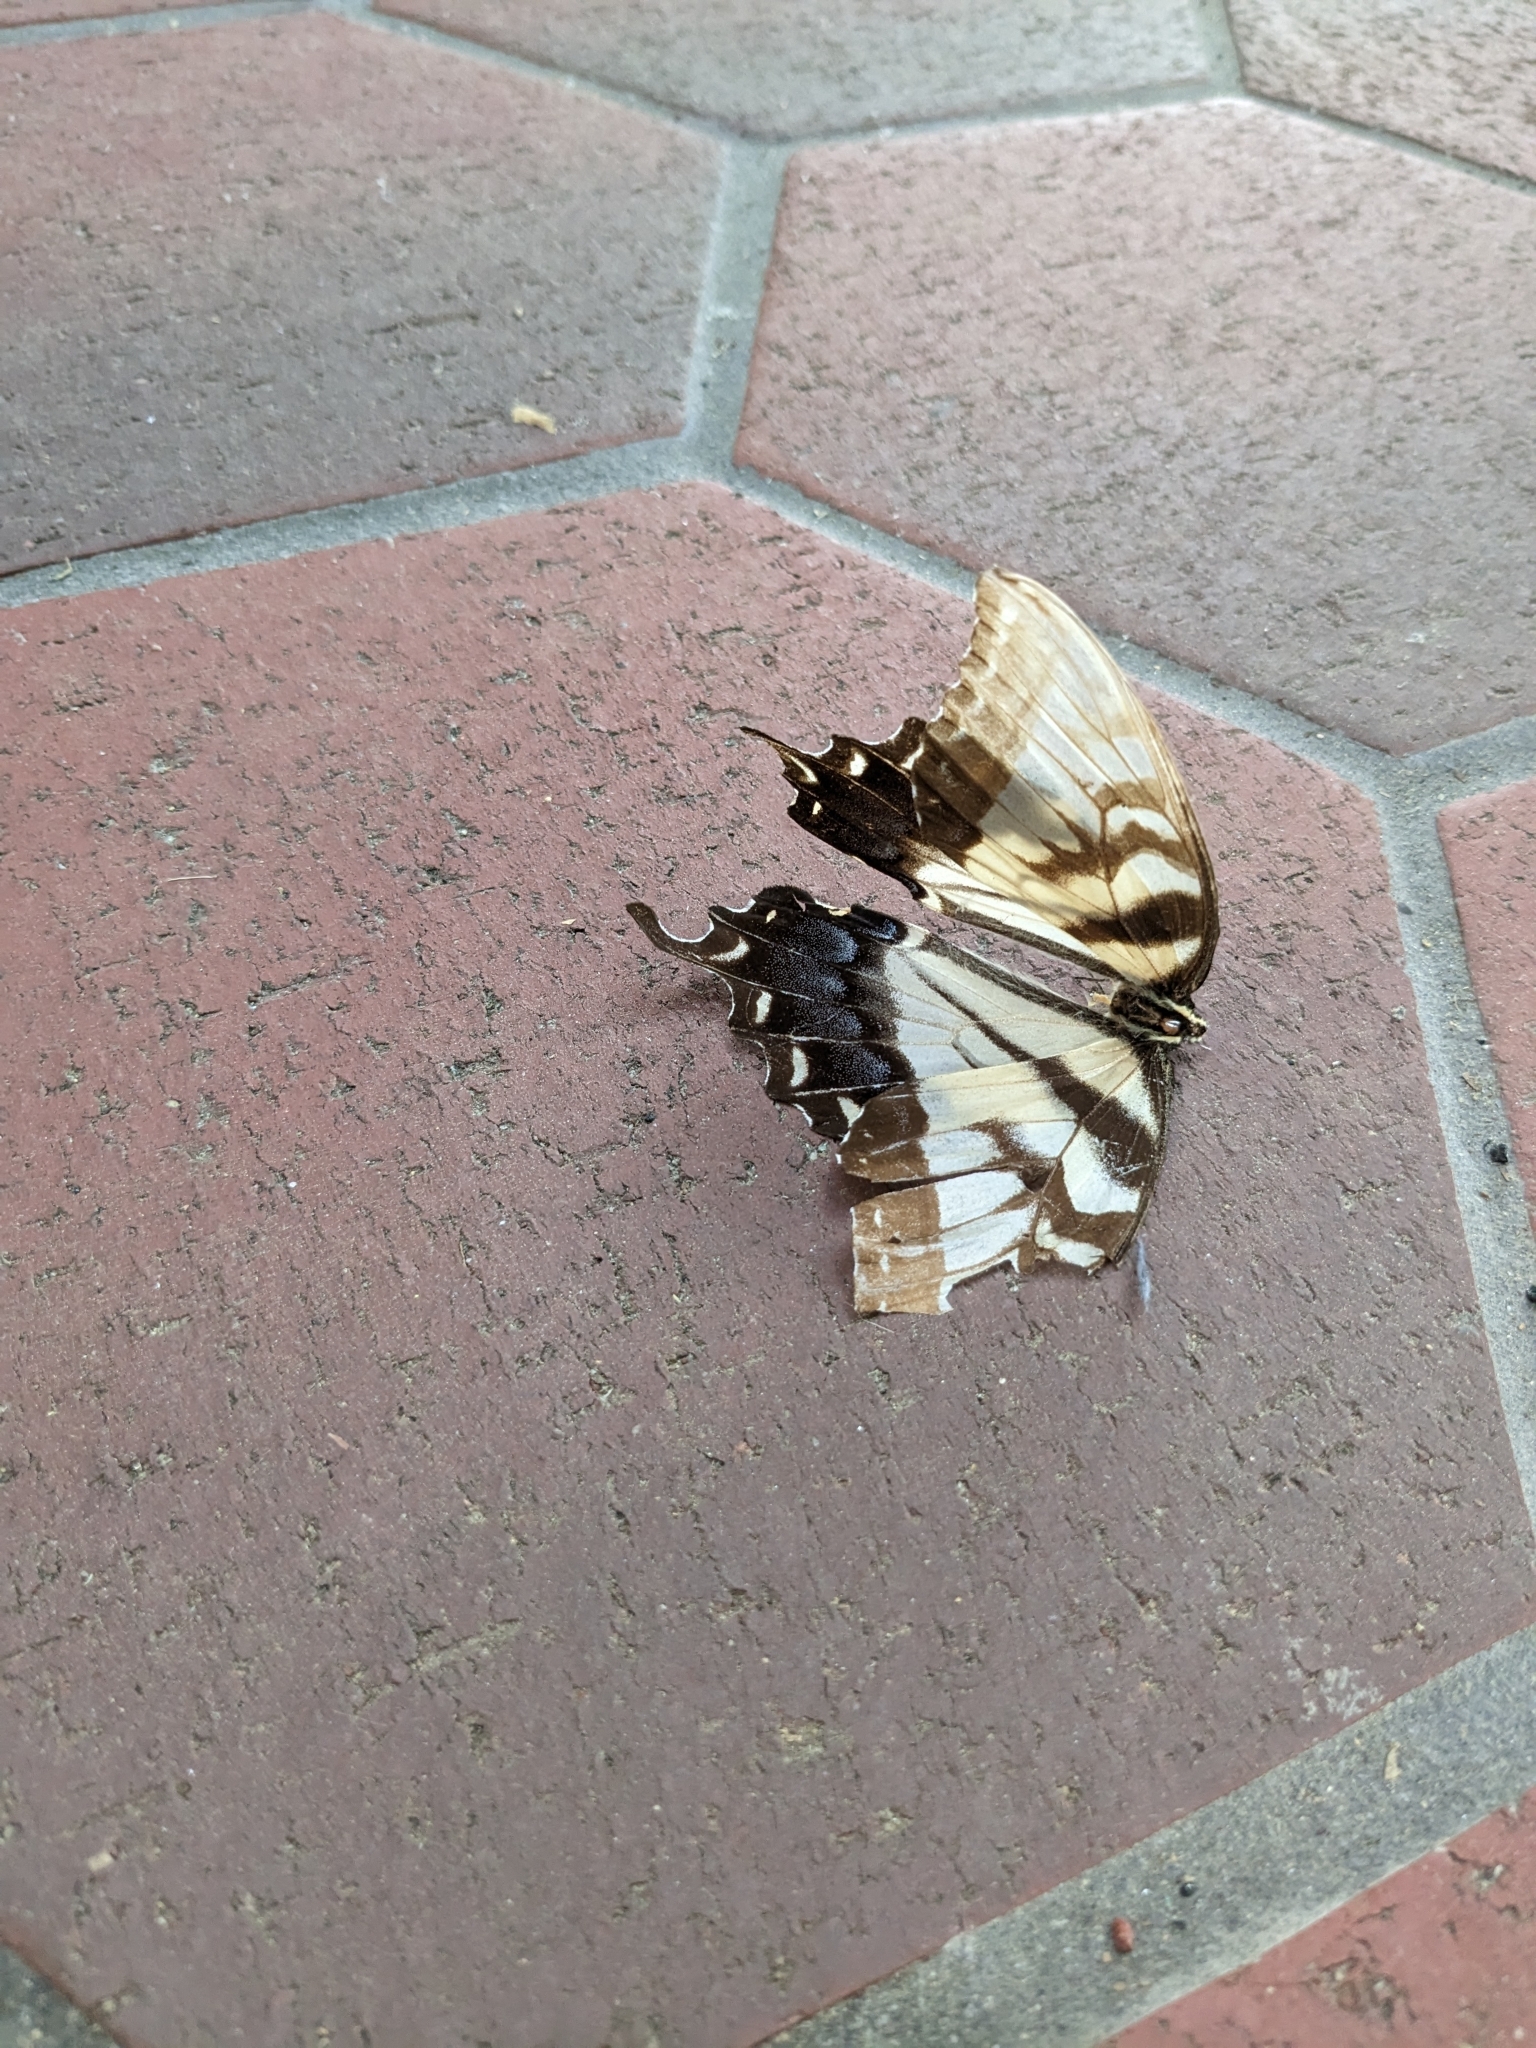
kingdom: Animalia
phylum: Arthropoda
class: Insecta
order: Lepidoptera
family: Papilionidae
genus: Papilio
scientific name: Papilio glaucus
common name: Tiger swallowtail
